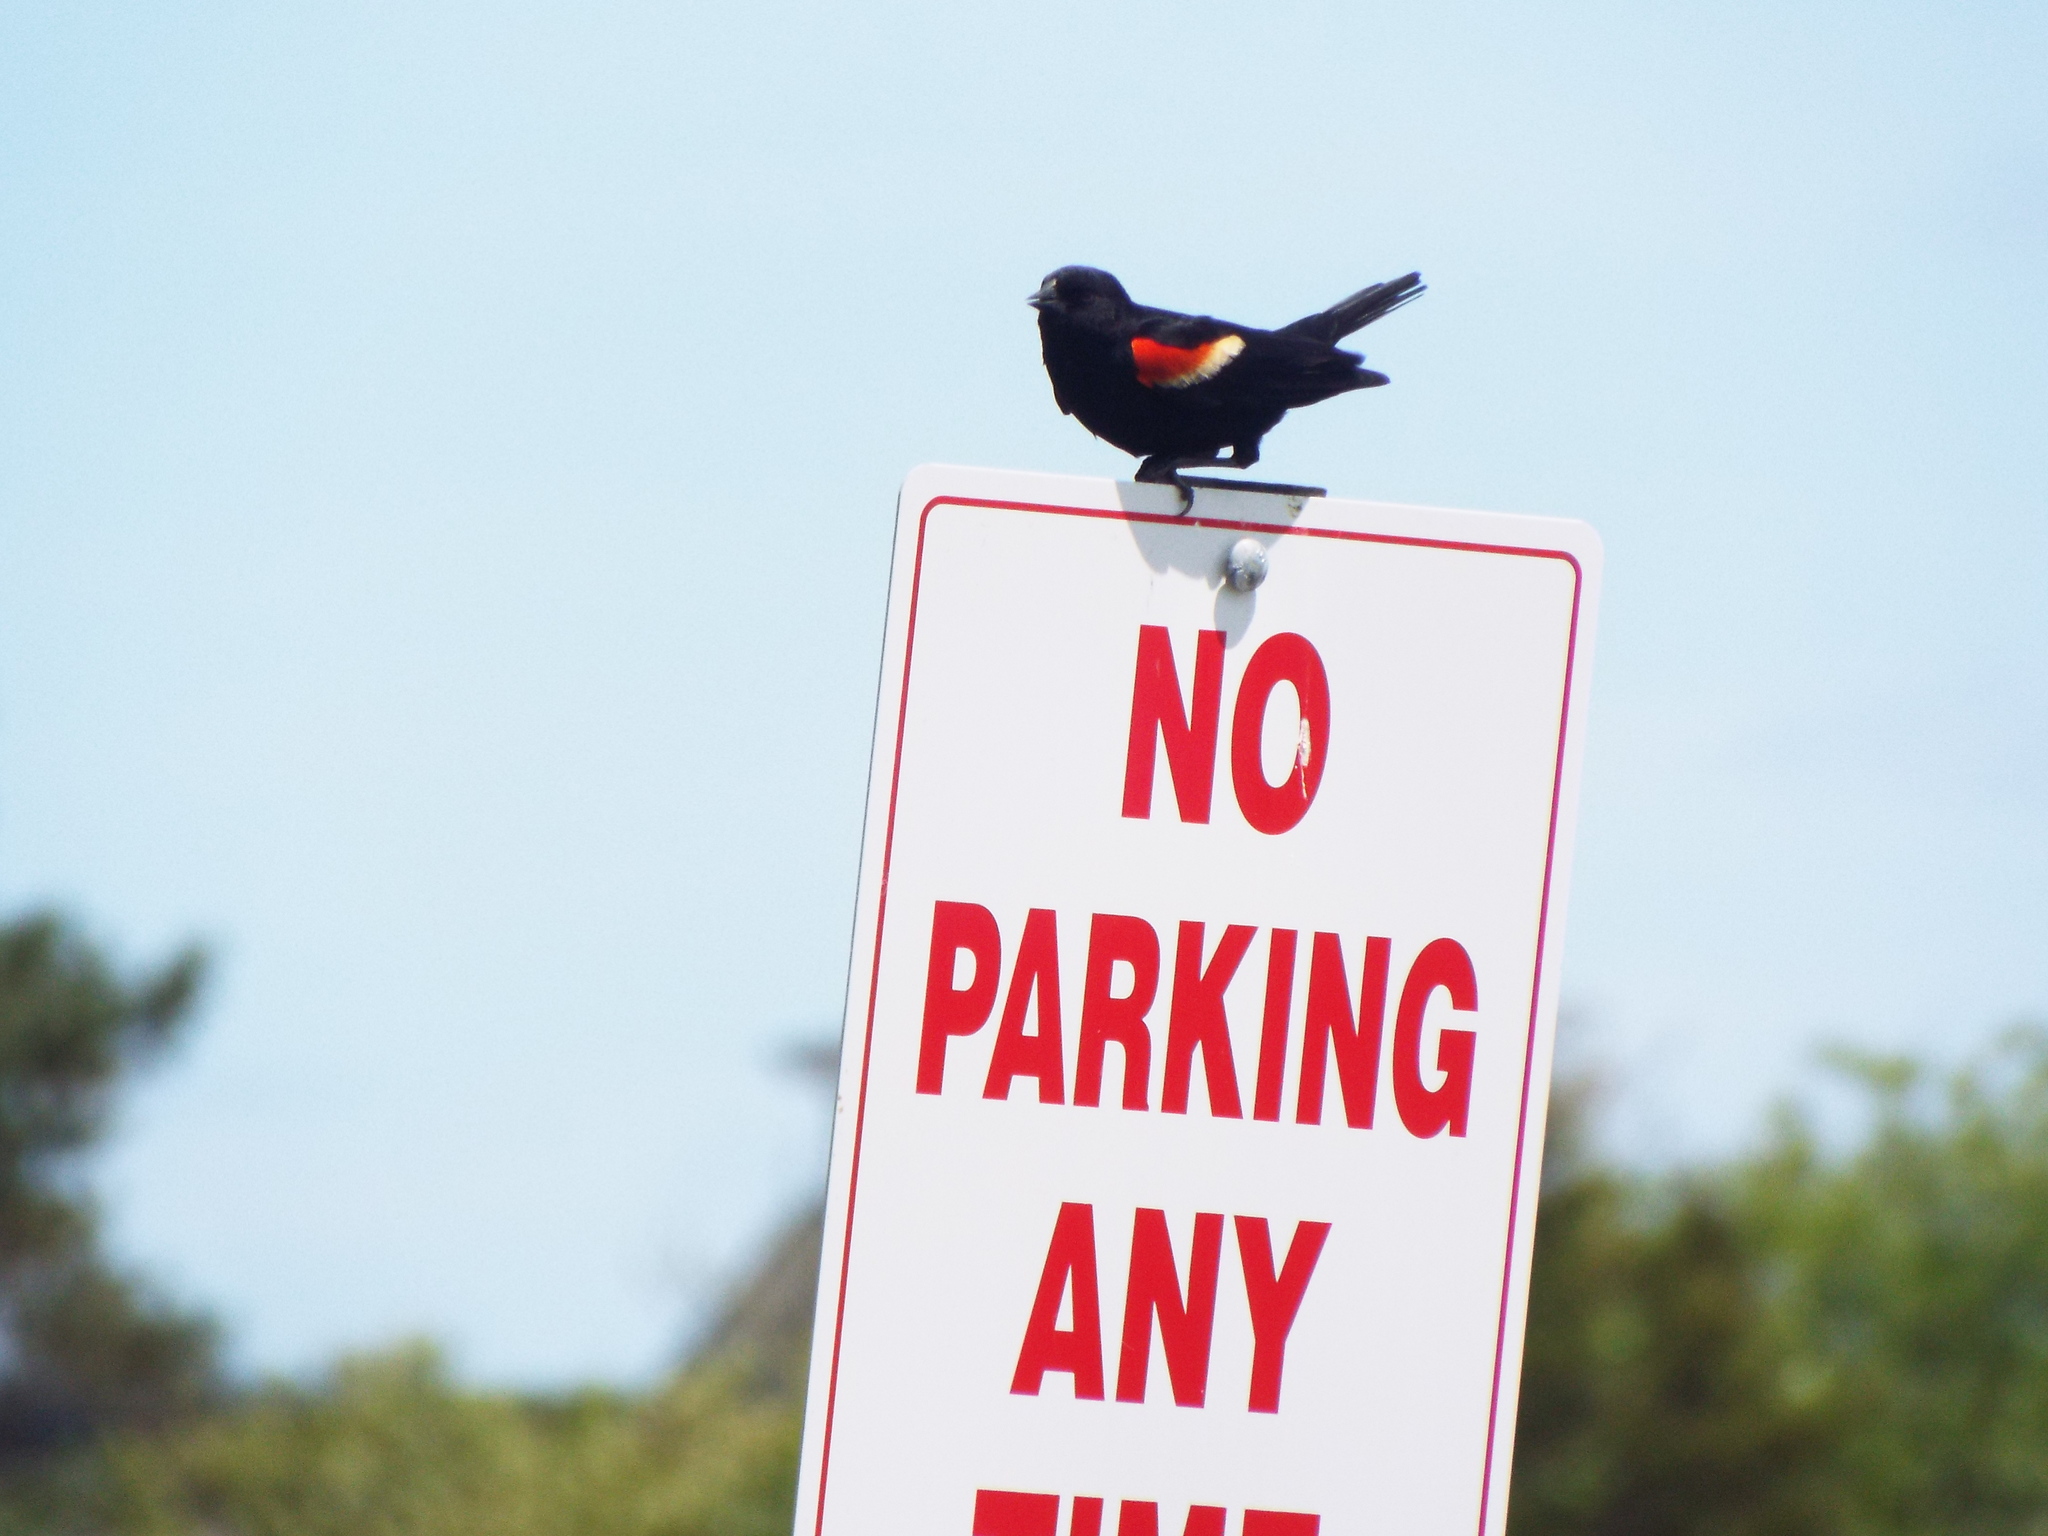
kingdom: Animalia
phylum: Chordata
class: Aves
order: Passeriformes
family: Icteridae
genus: Agelaius
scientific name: Agelaius phoeniceus
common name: Red-winged blackbird
